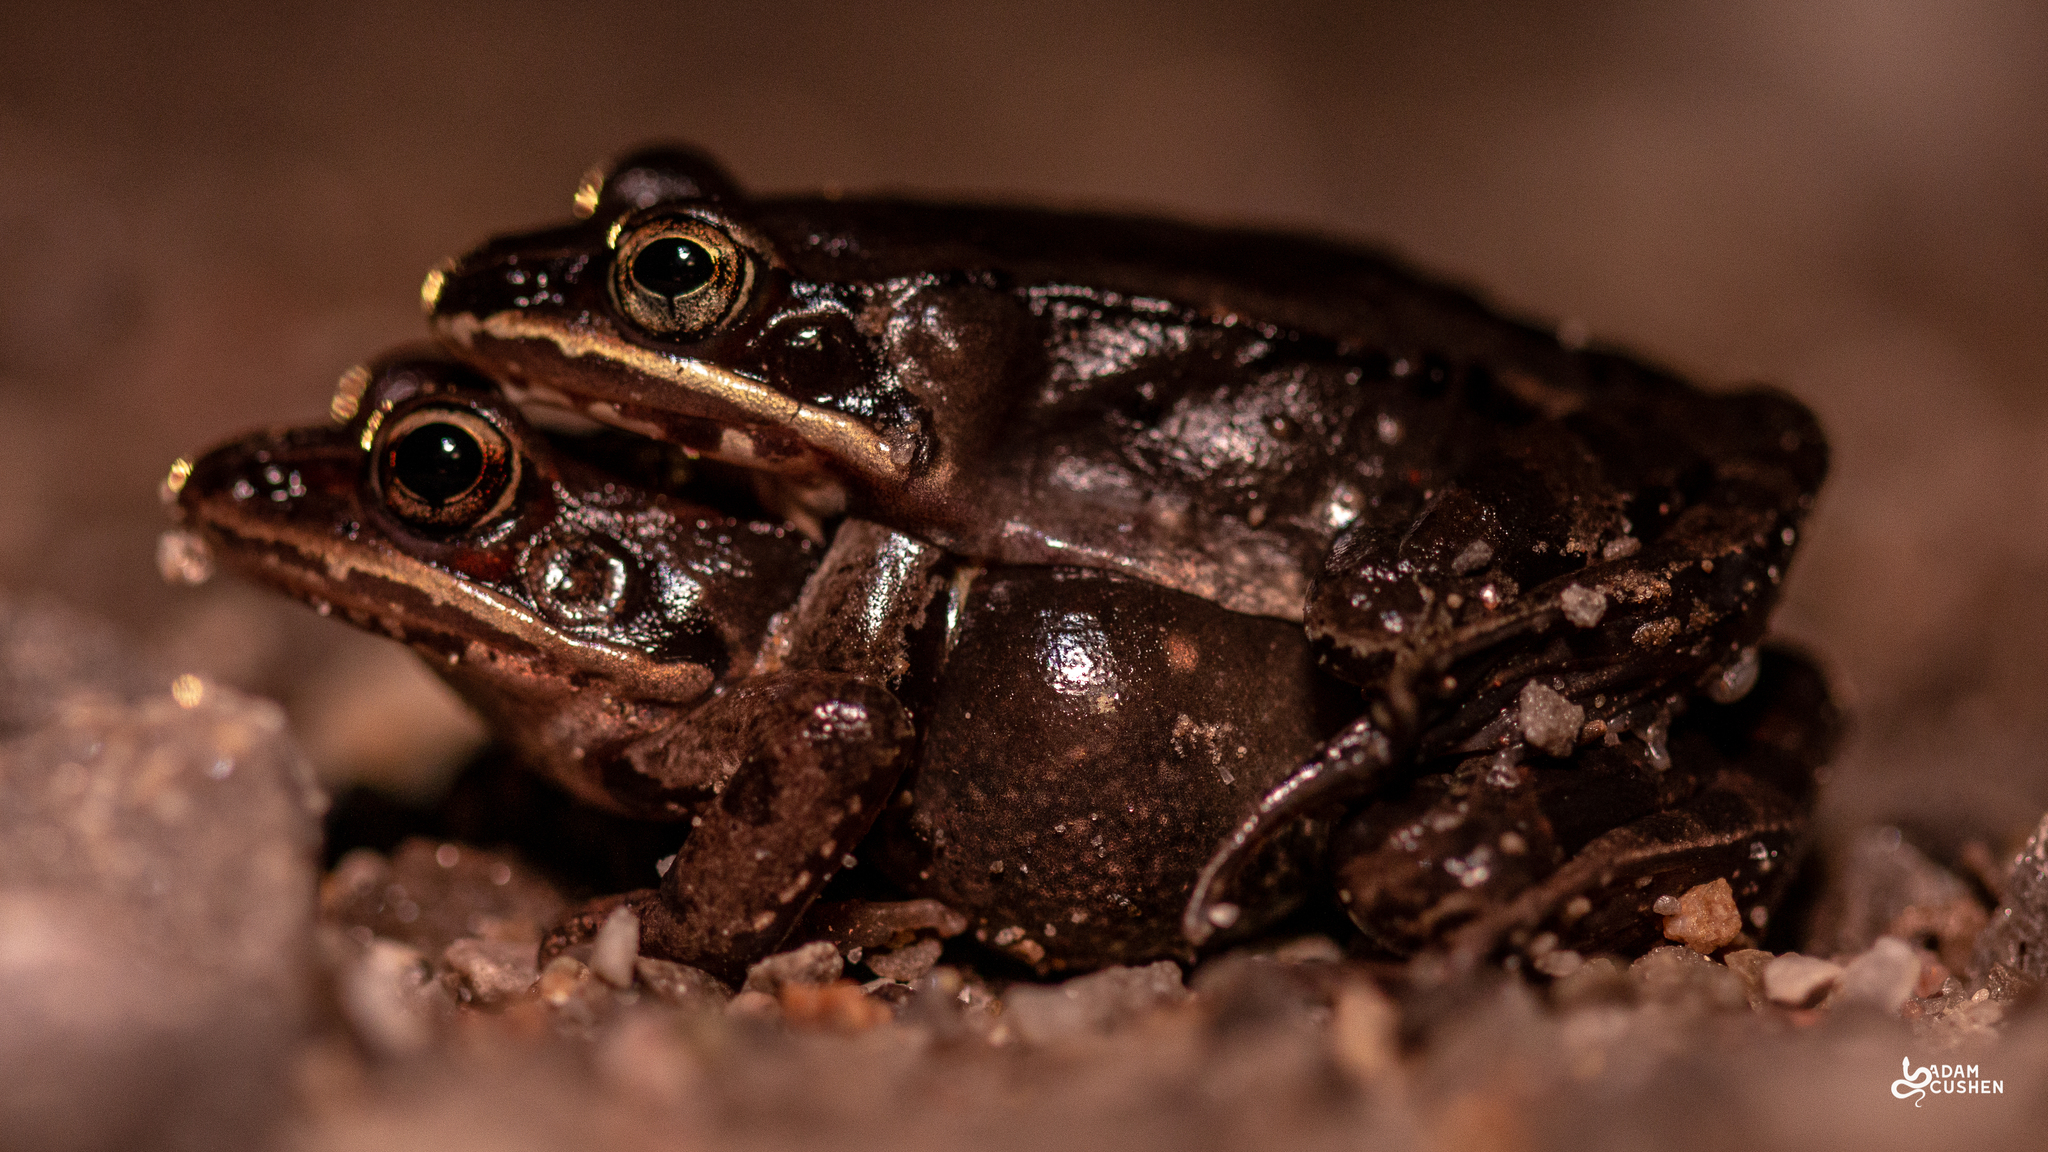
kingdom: Animalia
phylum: Chordata
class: Amphibia
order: Anura
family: Ranidae
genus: Lithobates
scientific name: Lithobates sylvaticus
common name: Wood frog
